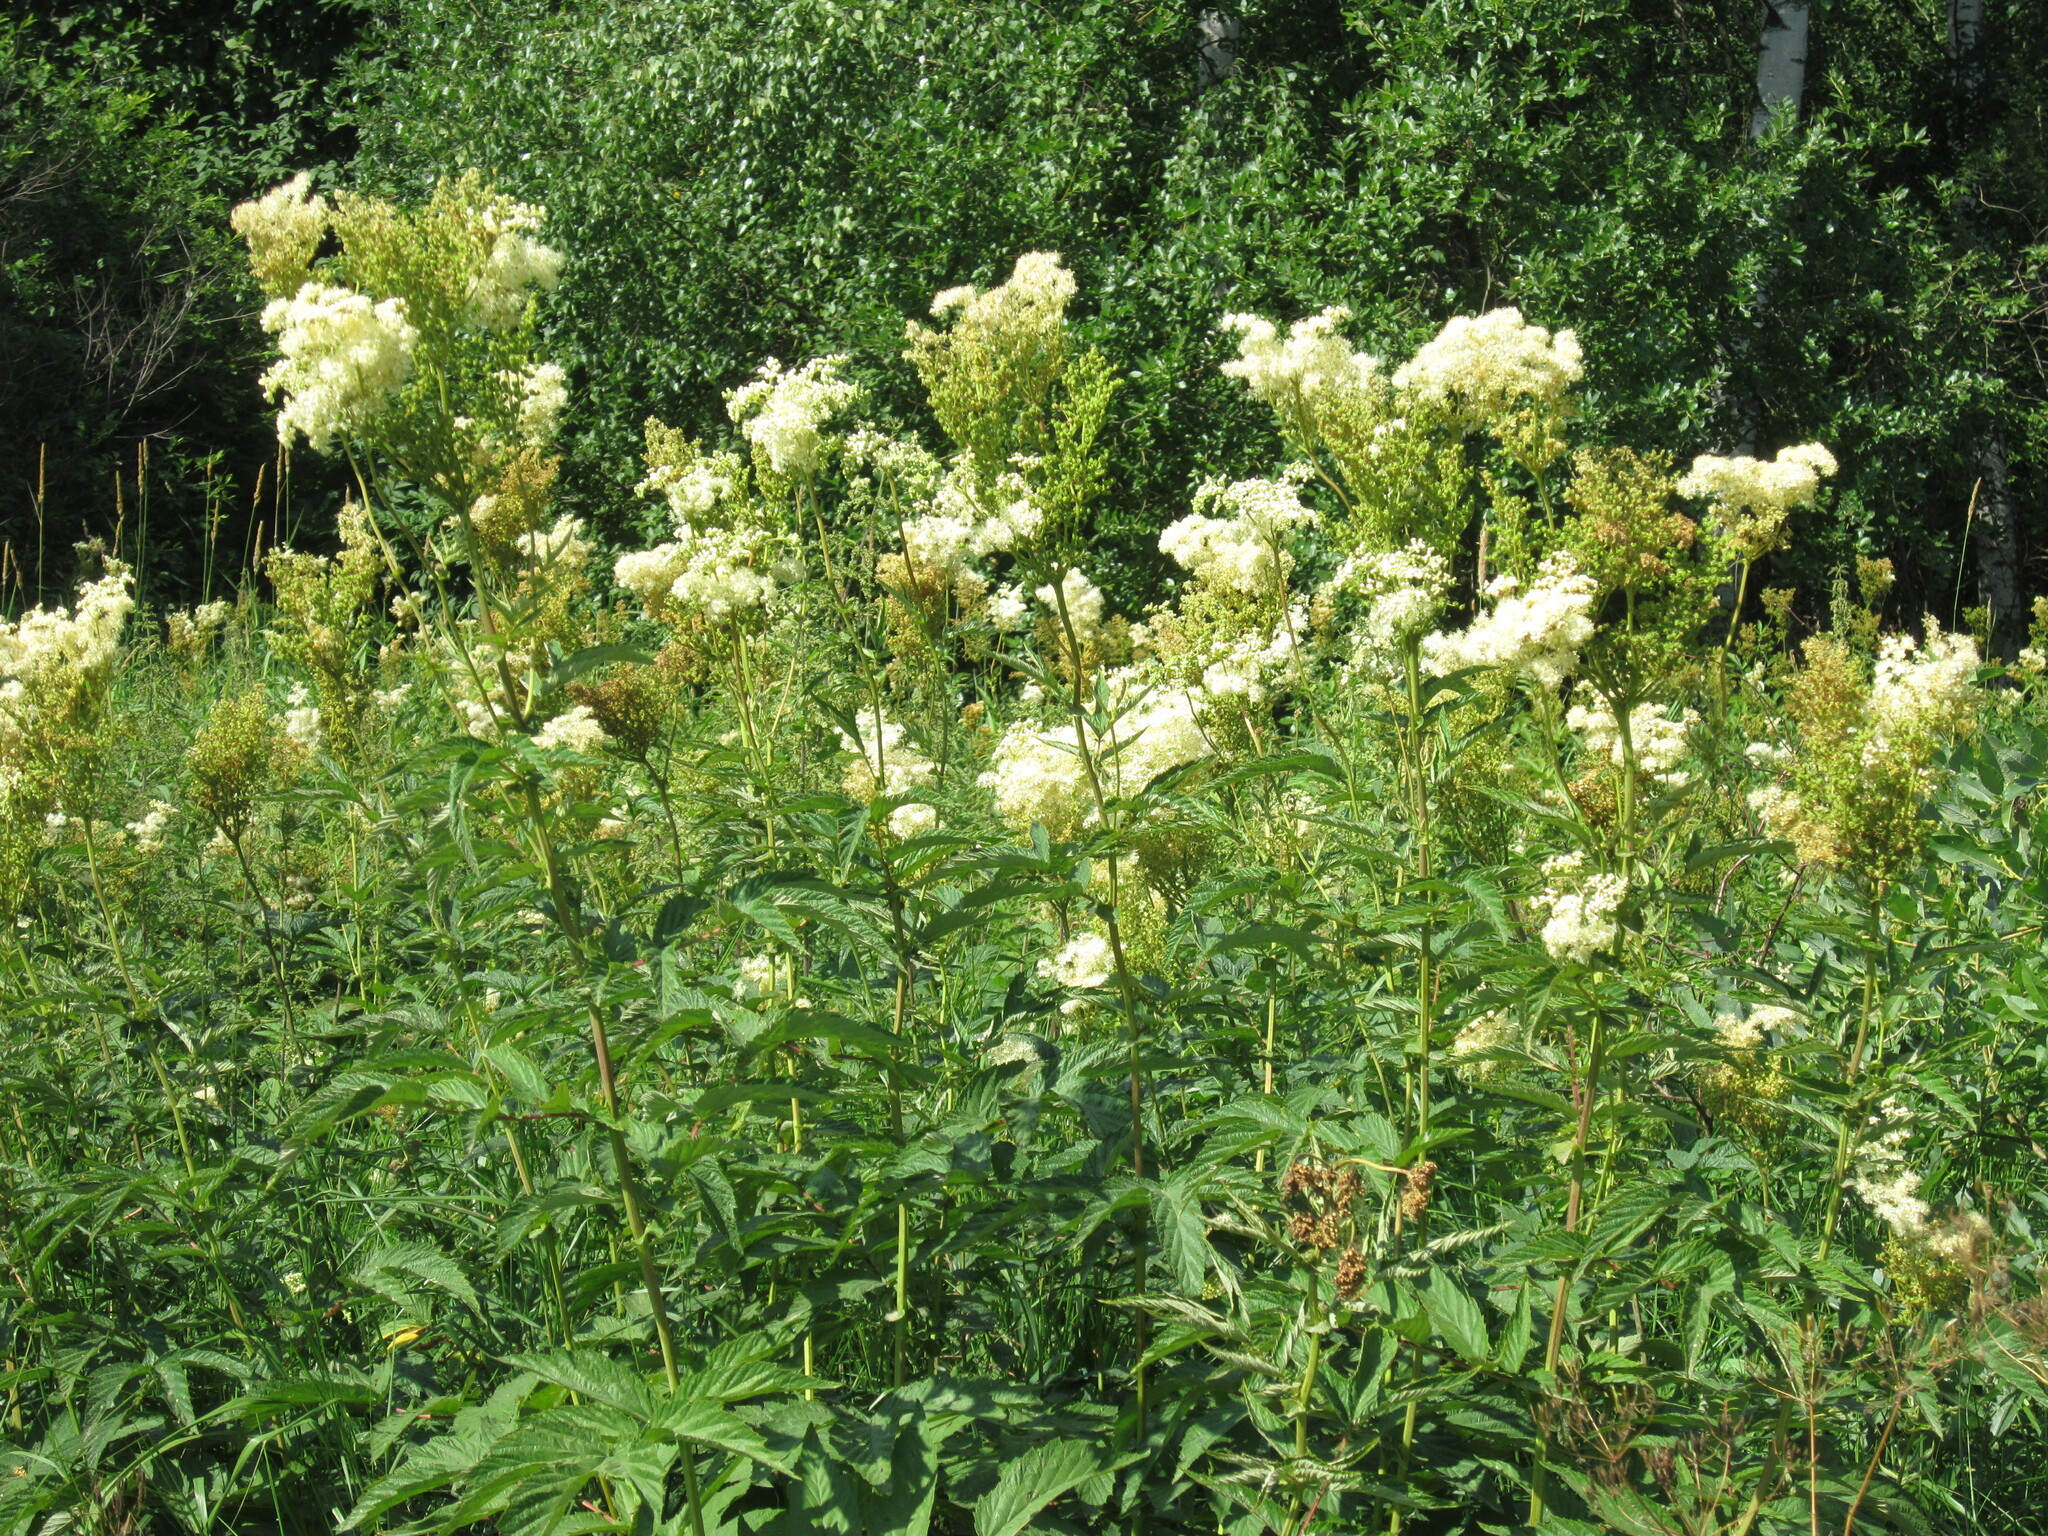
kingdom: Plantae
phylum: Tracheophyta
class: Magnoliopsida
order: Rosales
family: Rosaceae
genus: Filipendula
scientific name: Filipendula ulmaria
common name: Meadowsweet
